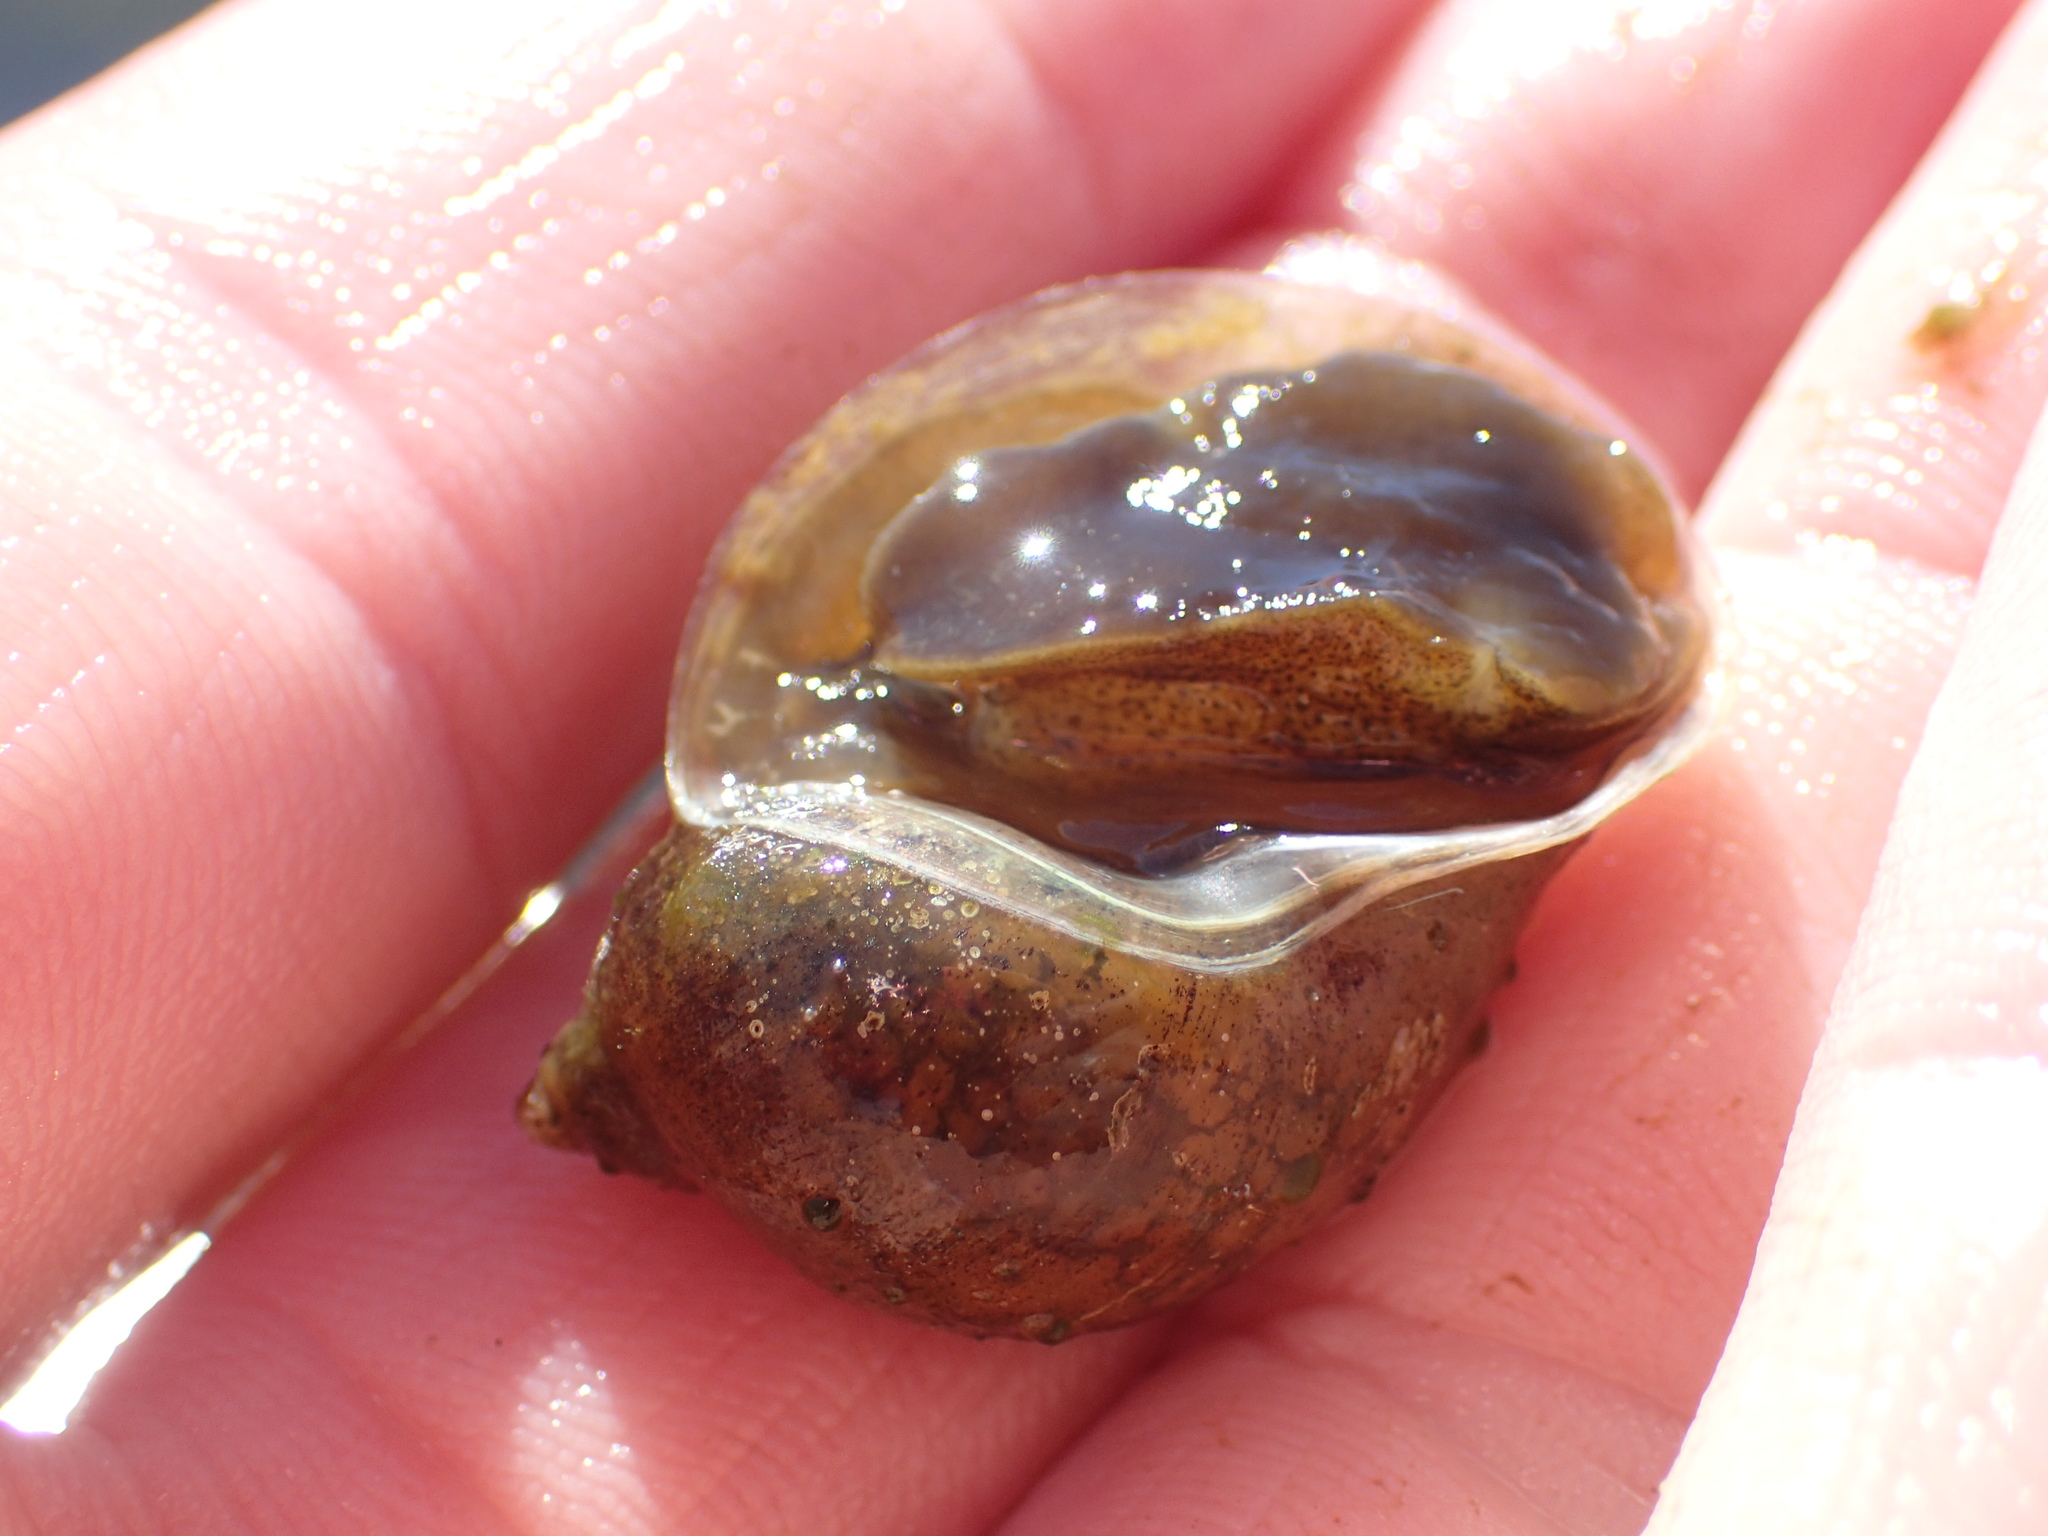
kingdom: Animalia
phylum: Mollusca
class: Gastropoda
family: Lymnaeidae
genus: Radix
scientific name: Radix auricularia
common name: Ear pond snail
